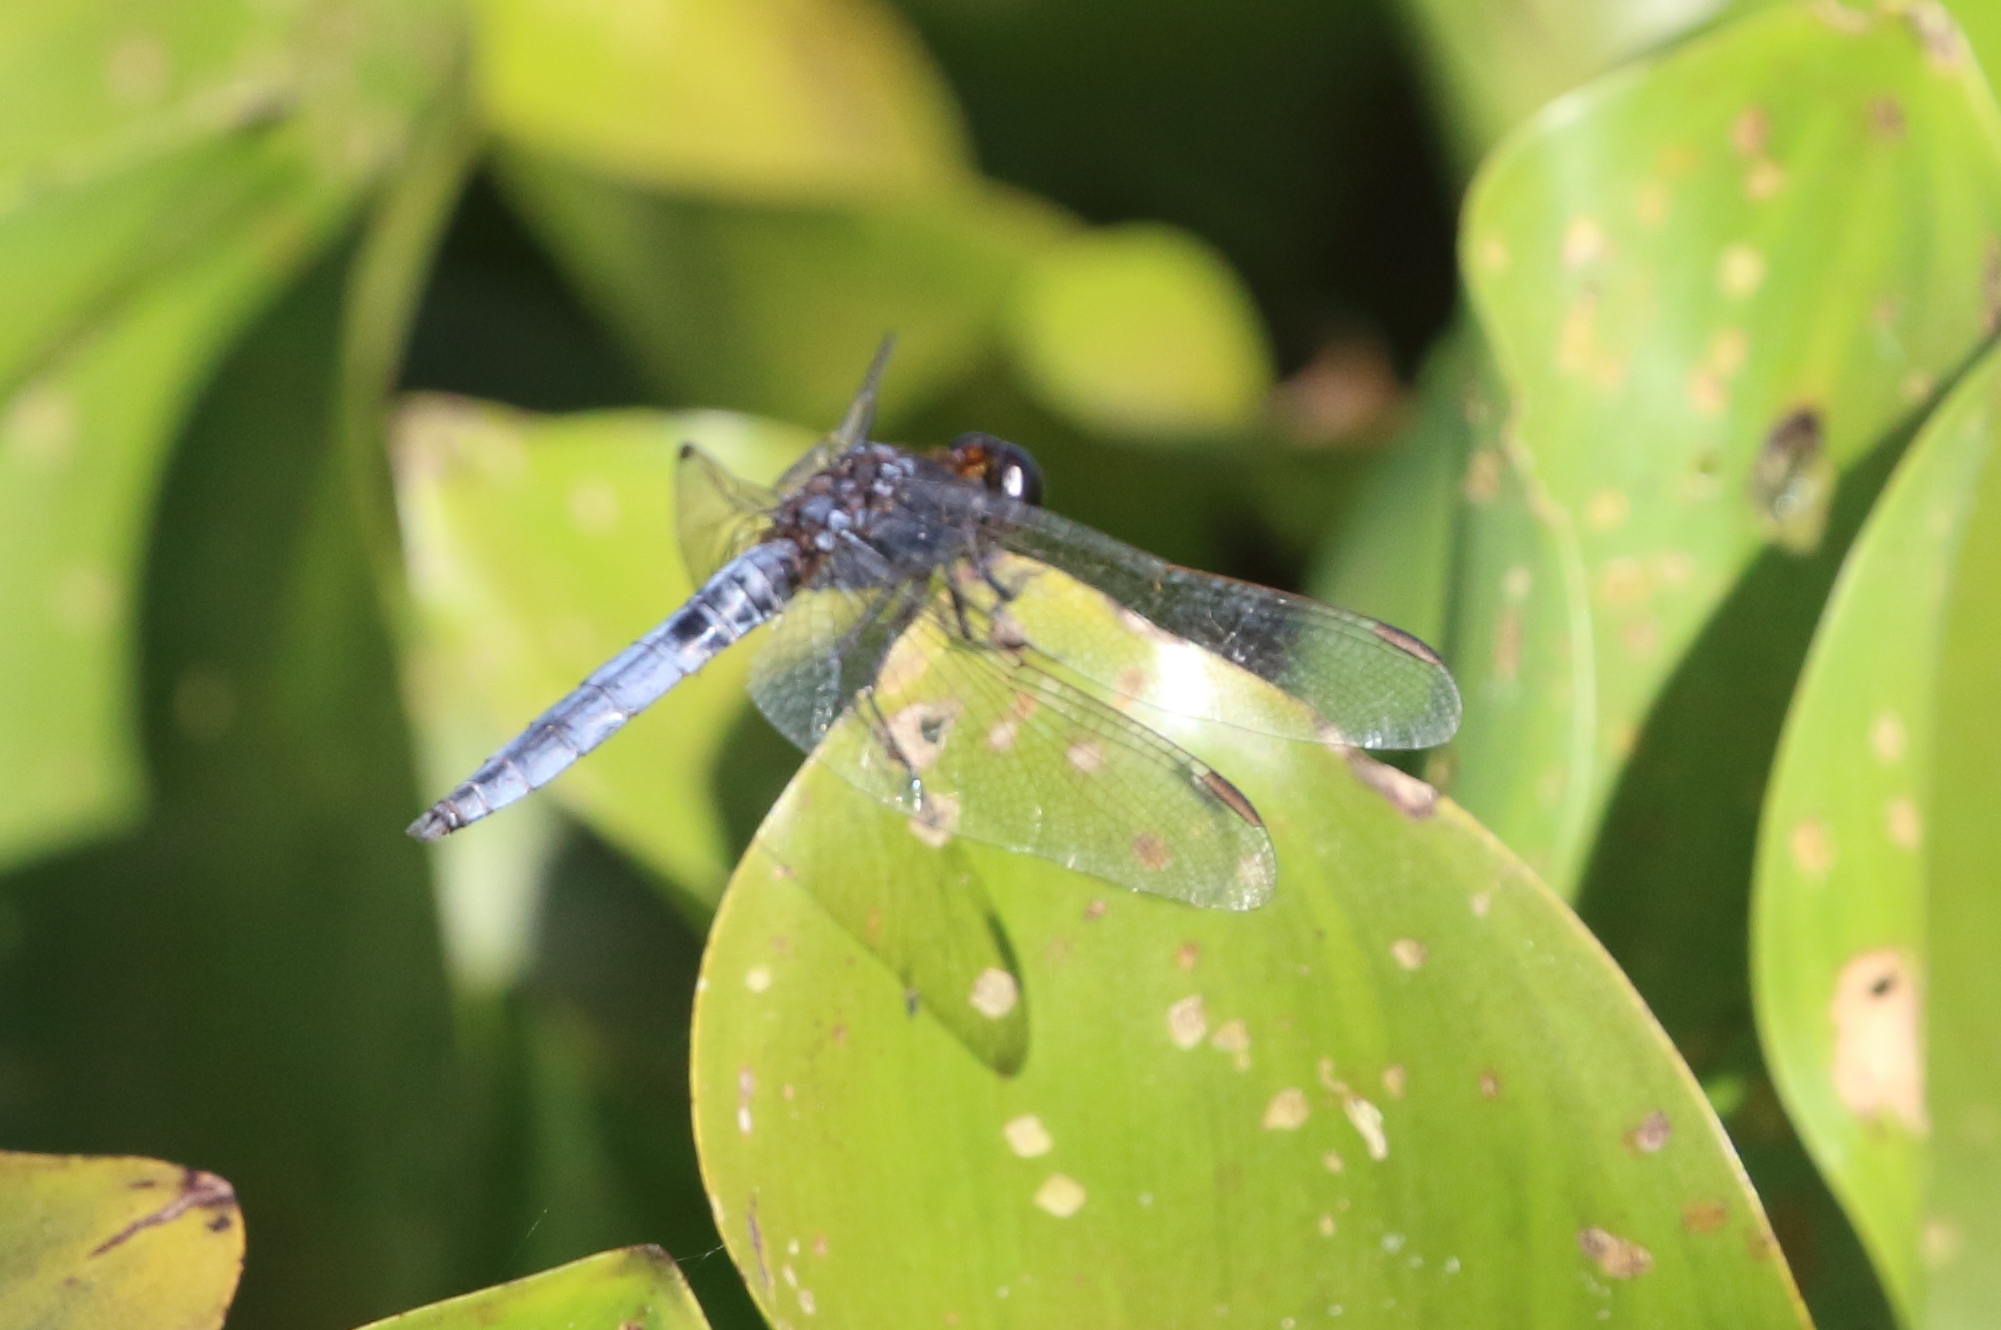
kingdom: Animalia
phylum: Arthropoda
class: Insecta
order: Odonata
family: Libellulidae
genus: Crocothemis
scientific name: Crocothemis nigrifrons
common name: Black-headed skimmer
